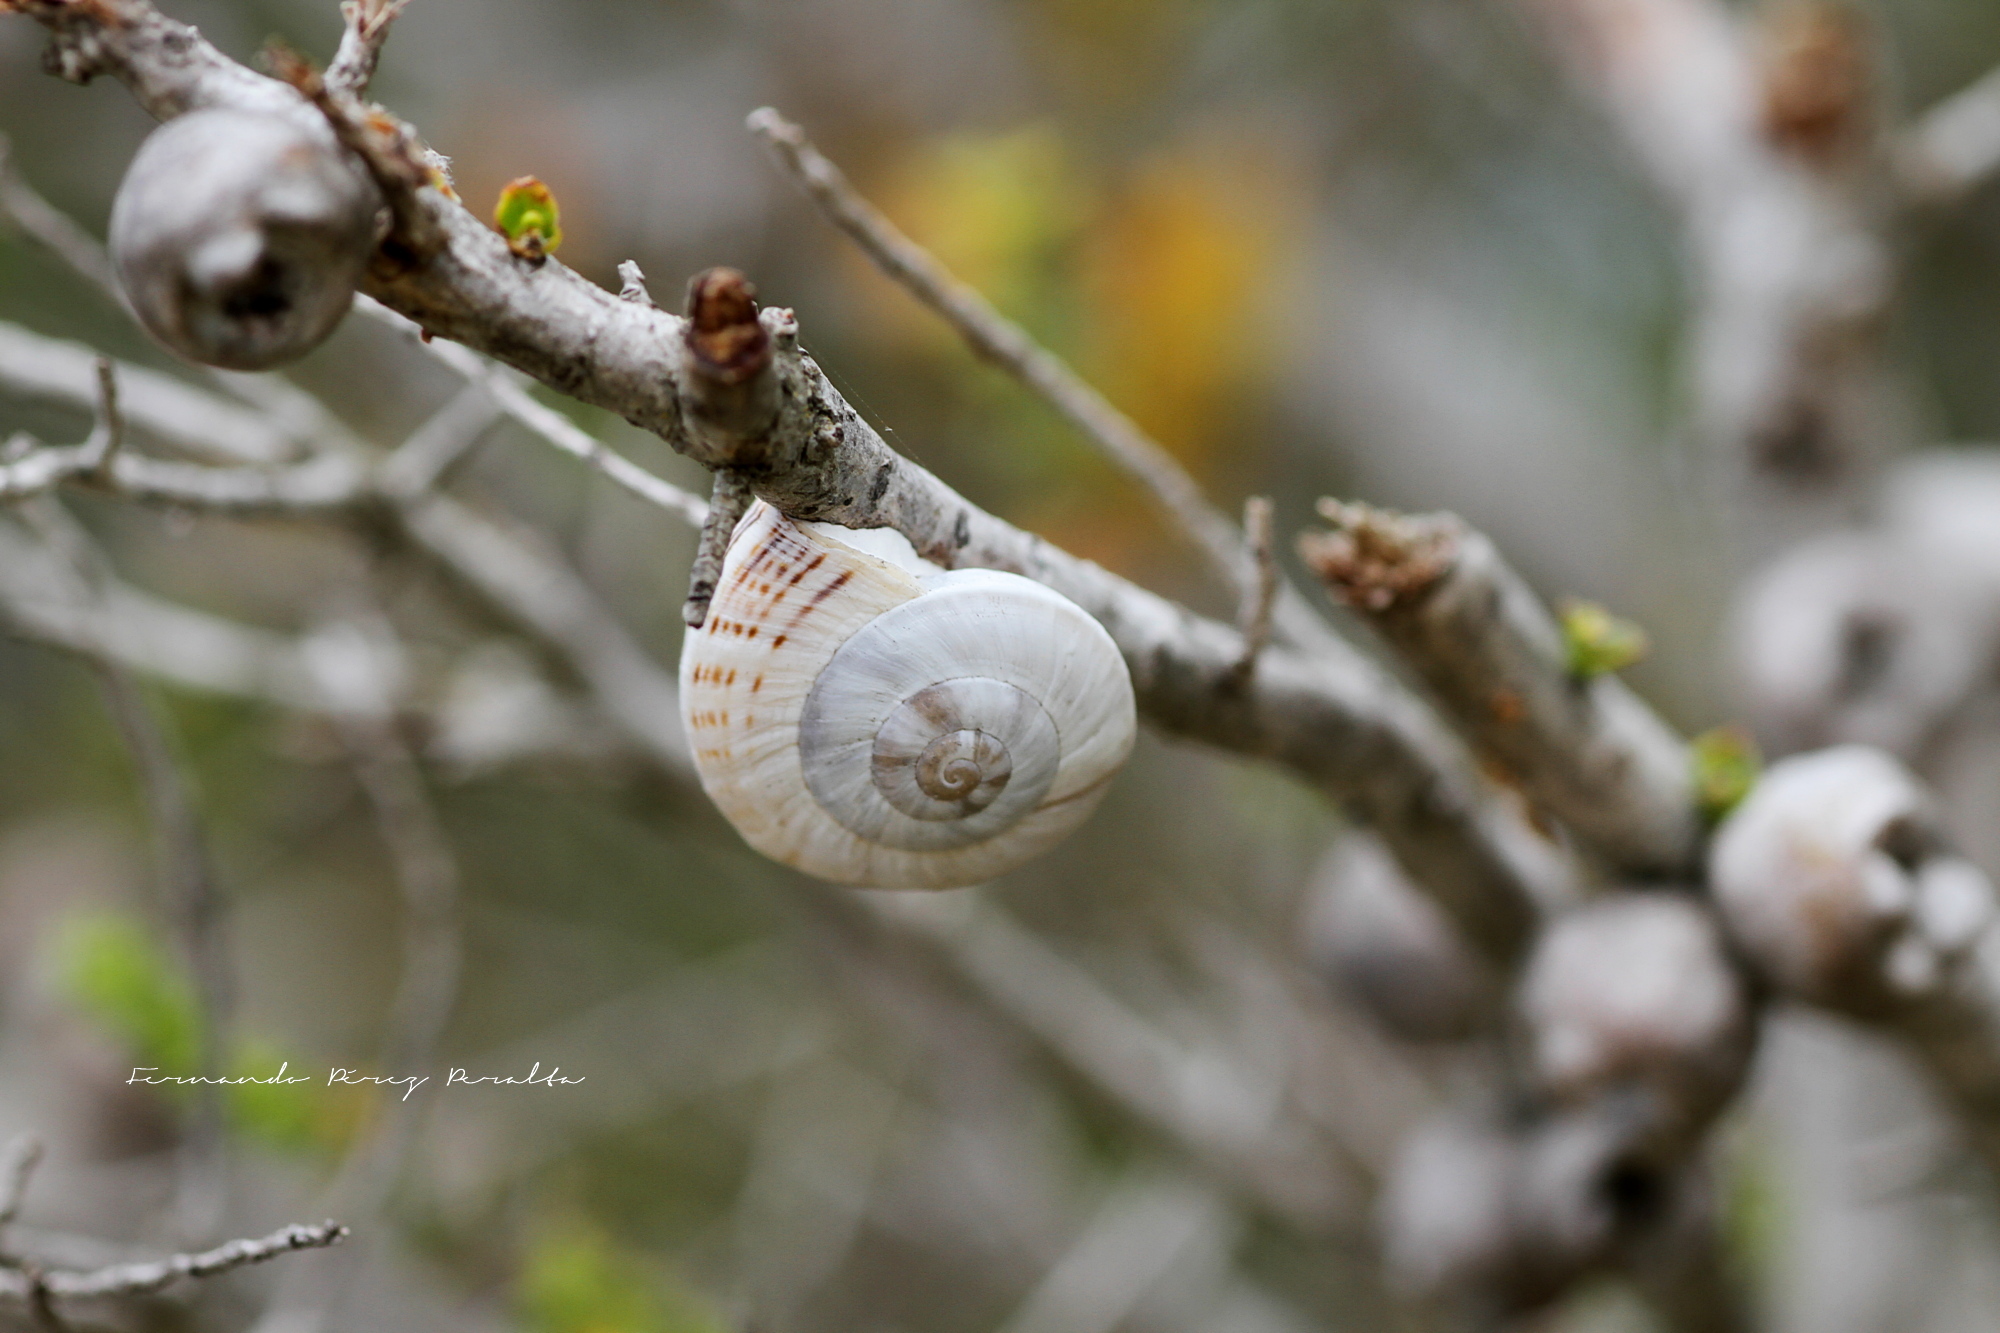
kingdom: Animalia
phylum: Mollusca
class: Gastropoda
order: Stylommatophora
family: Helicidae
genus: Theba
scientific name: Theba pisana
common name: White snail
